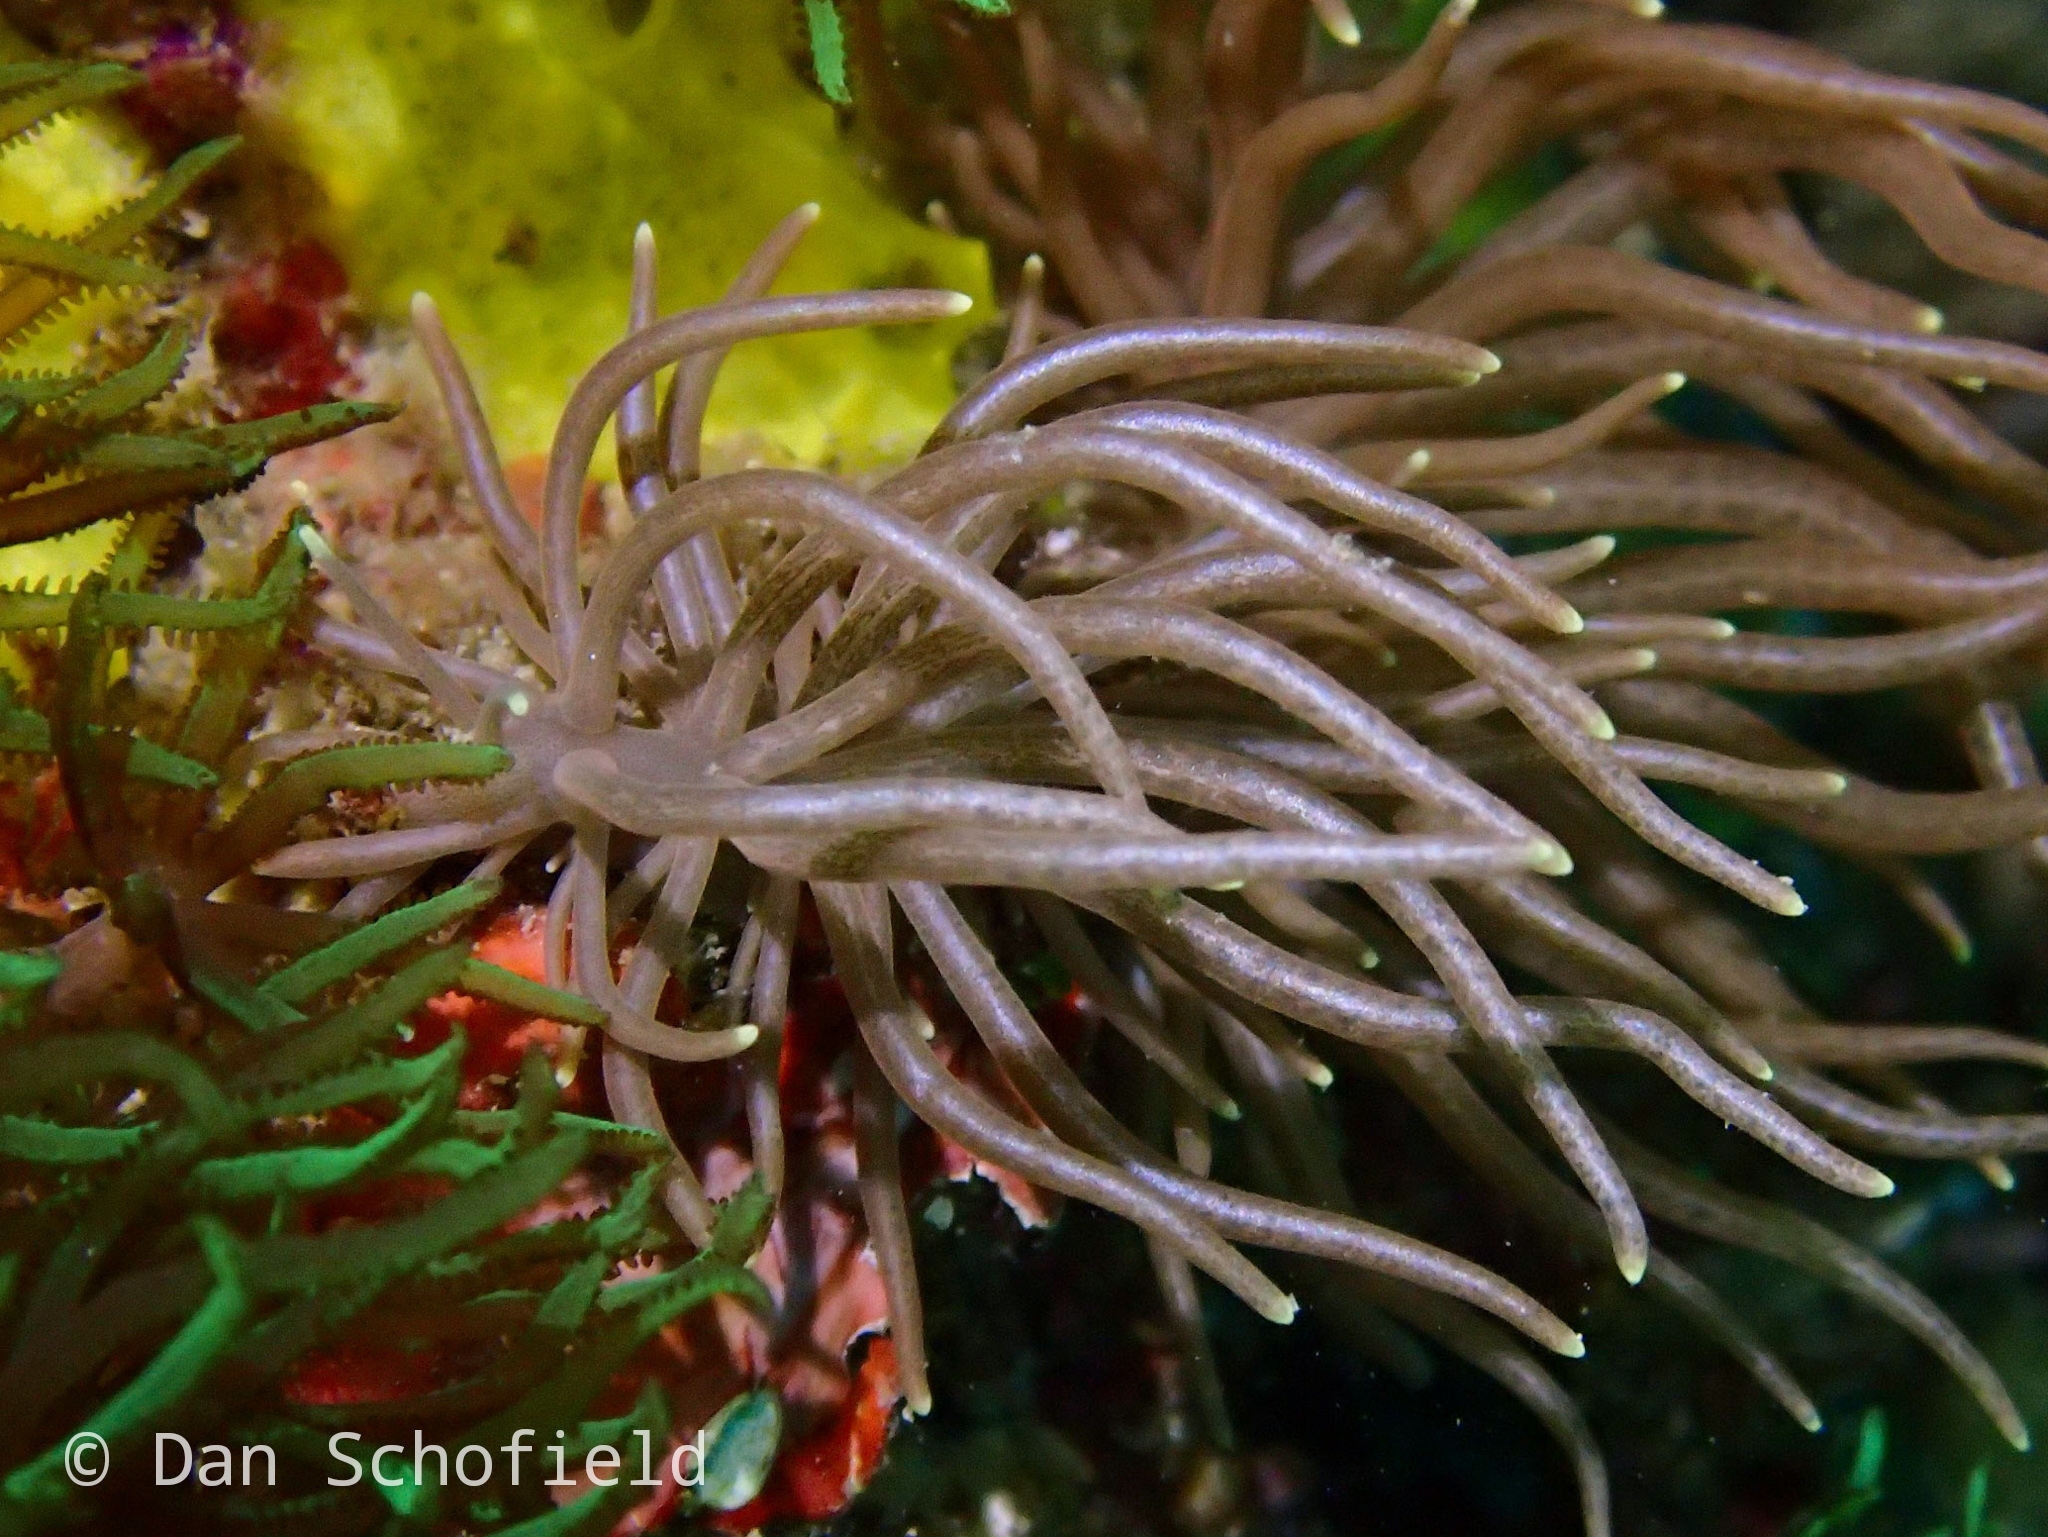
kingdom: Animalia
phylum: Mollusca
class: Gastropoda
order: Nudibranchia
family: Myrrhinidae
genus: Phyllodesmium
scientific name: Phyllodesmium briareum
